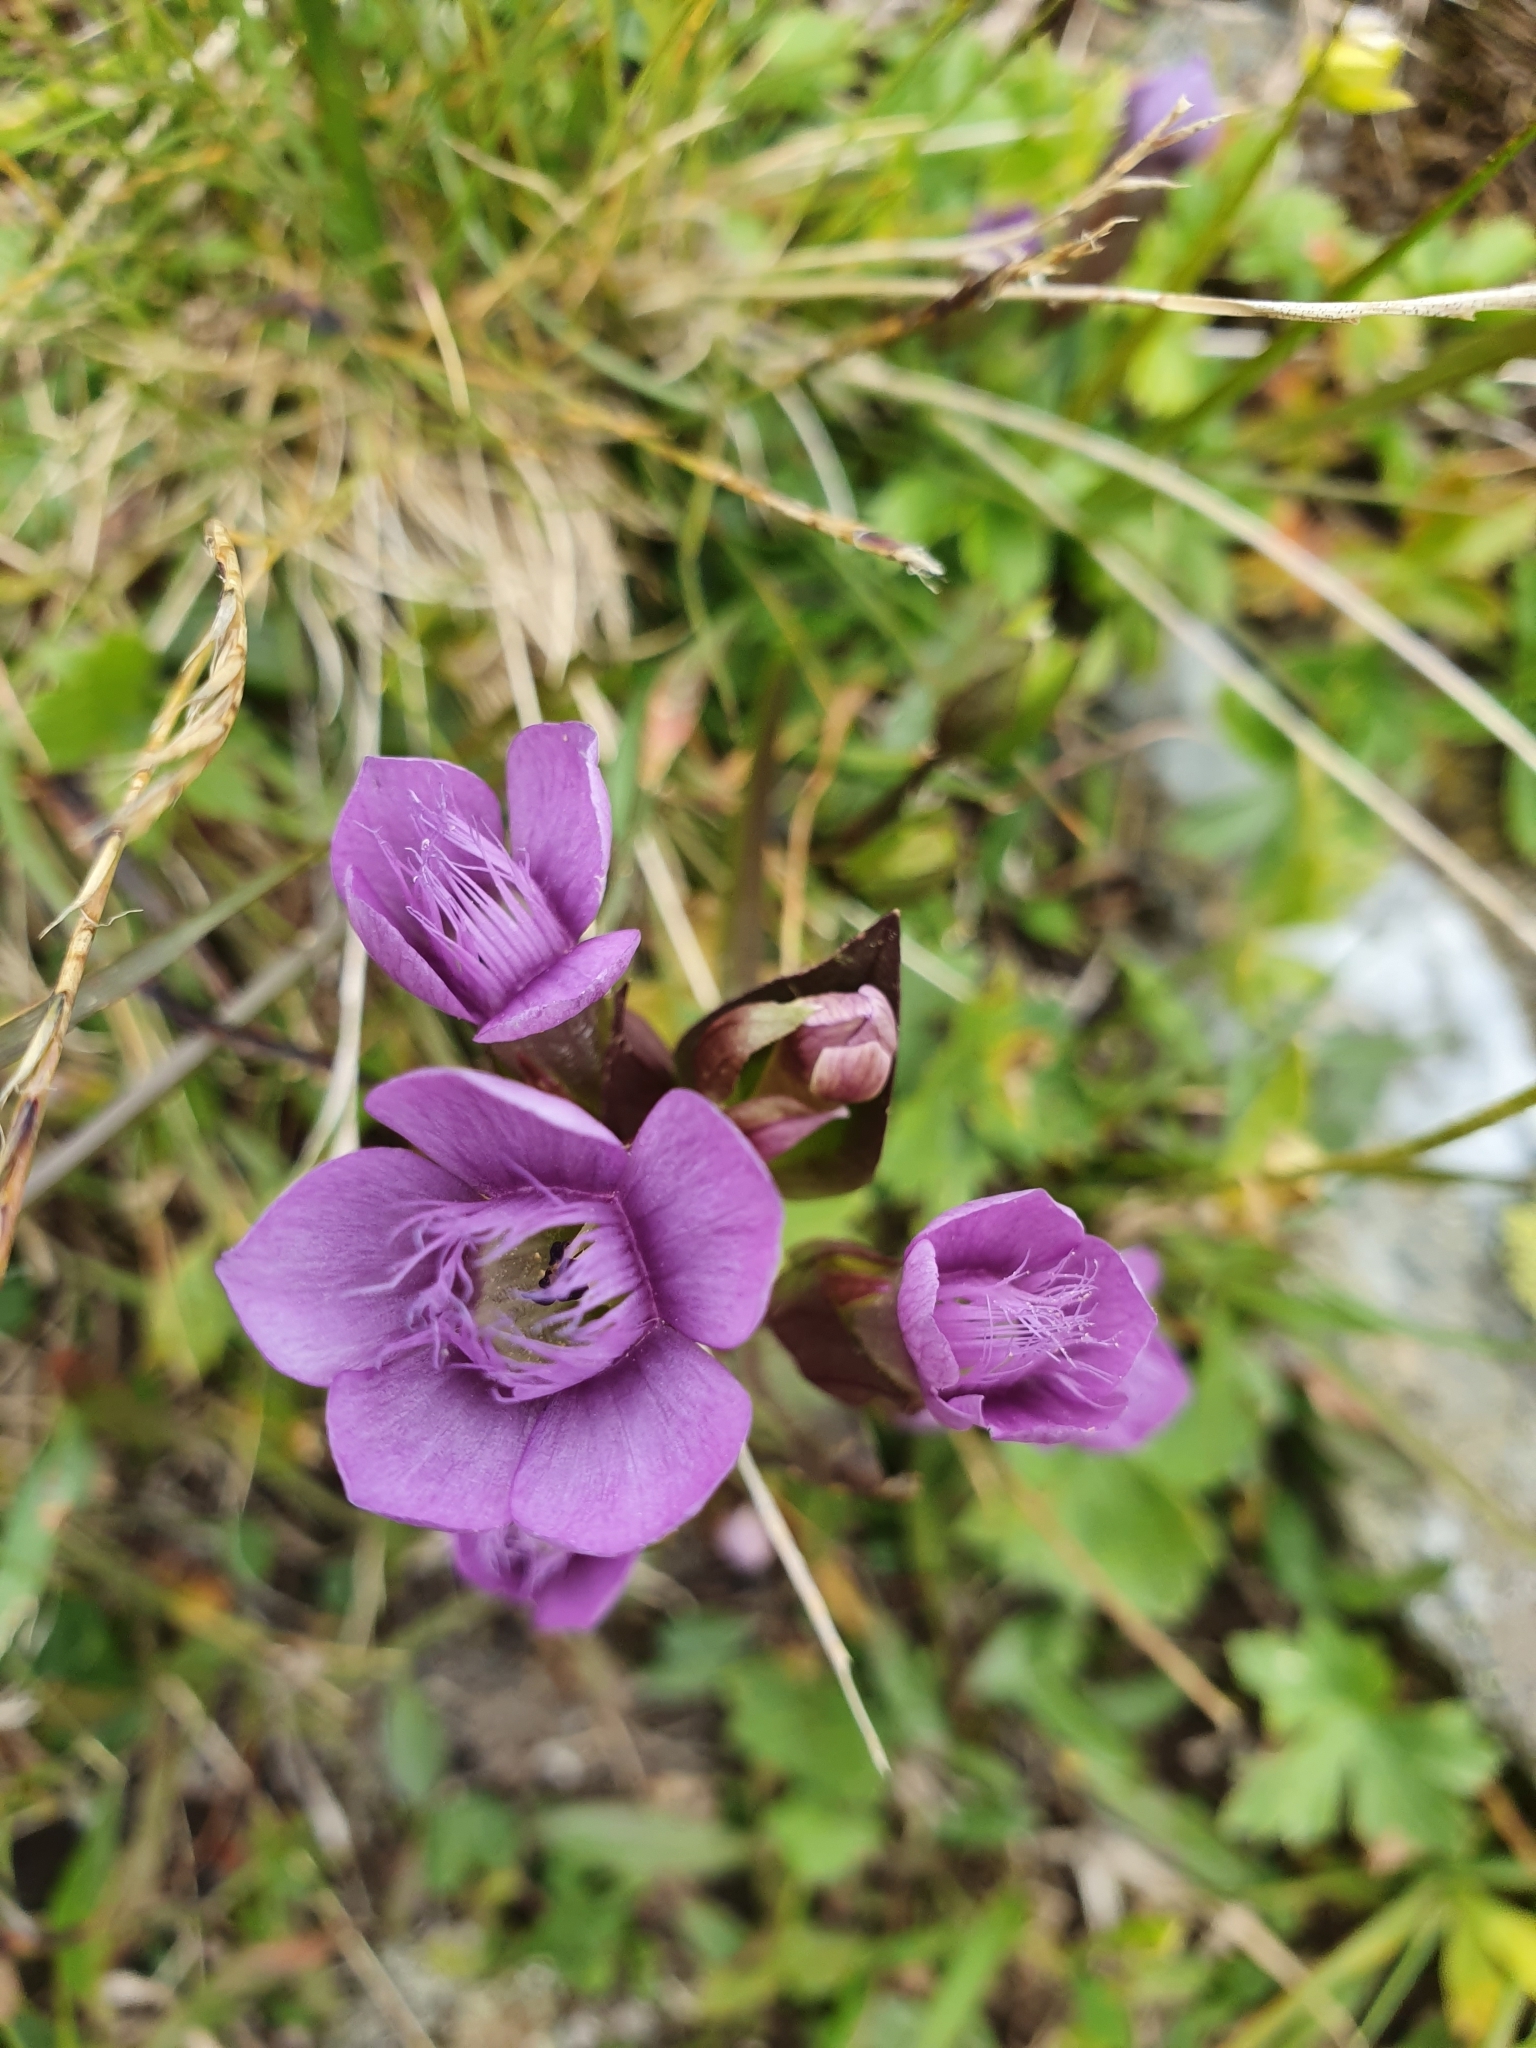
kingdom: Plantae
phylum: Tracheophyta
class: Magnoliopsida
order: Gentianales
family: Gentianaceae
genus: Gentianella
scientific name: Gentianella campestris
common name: Field gentian
